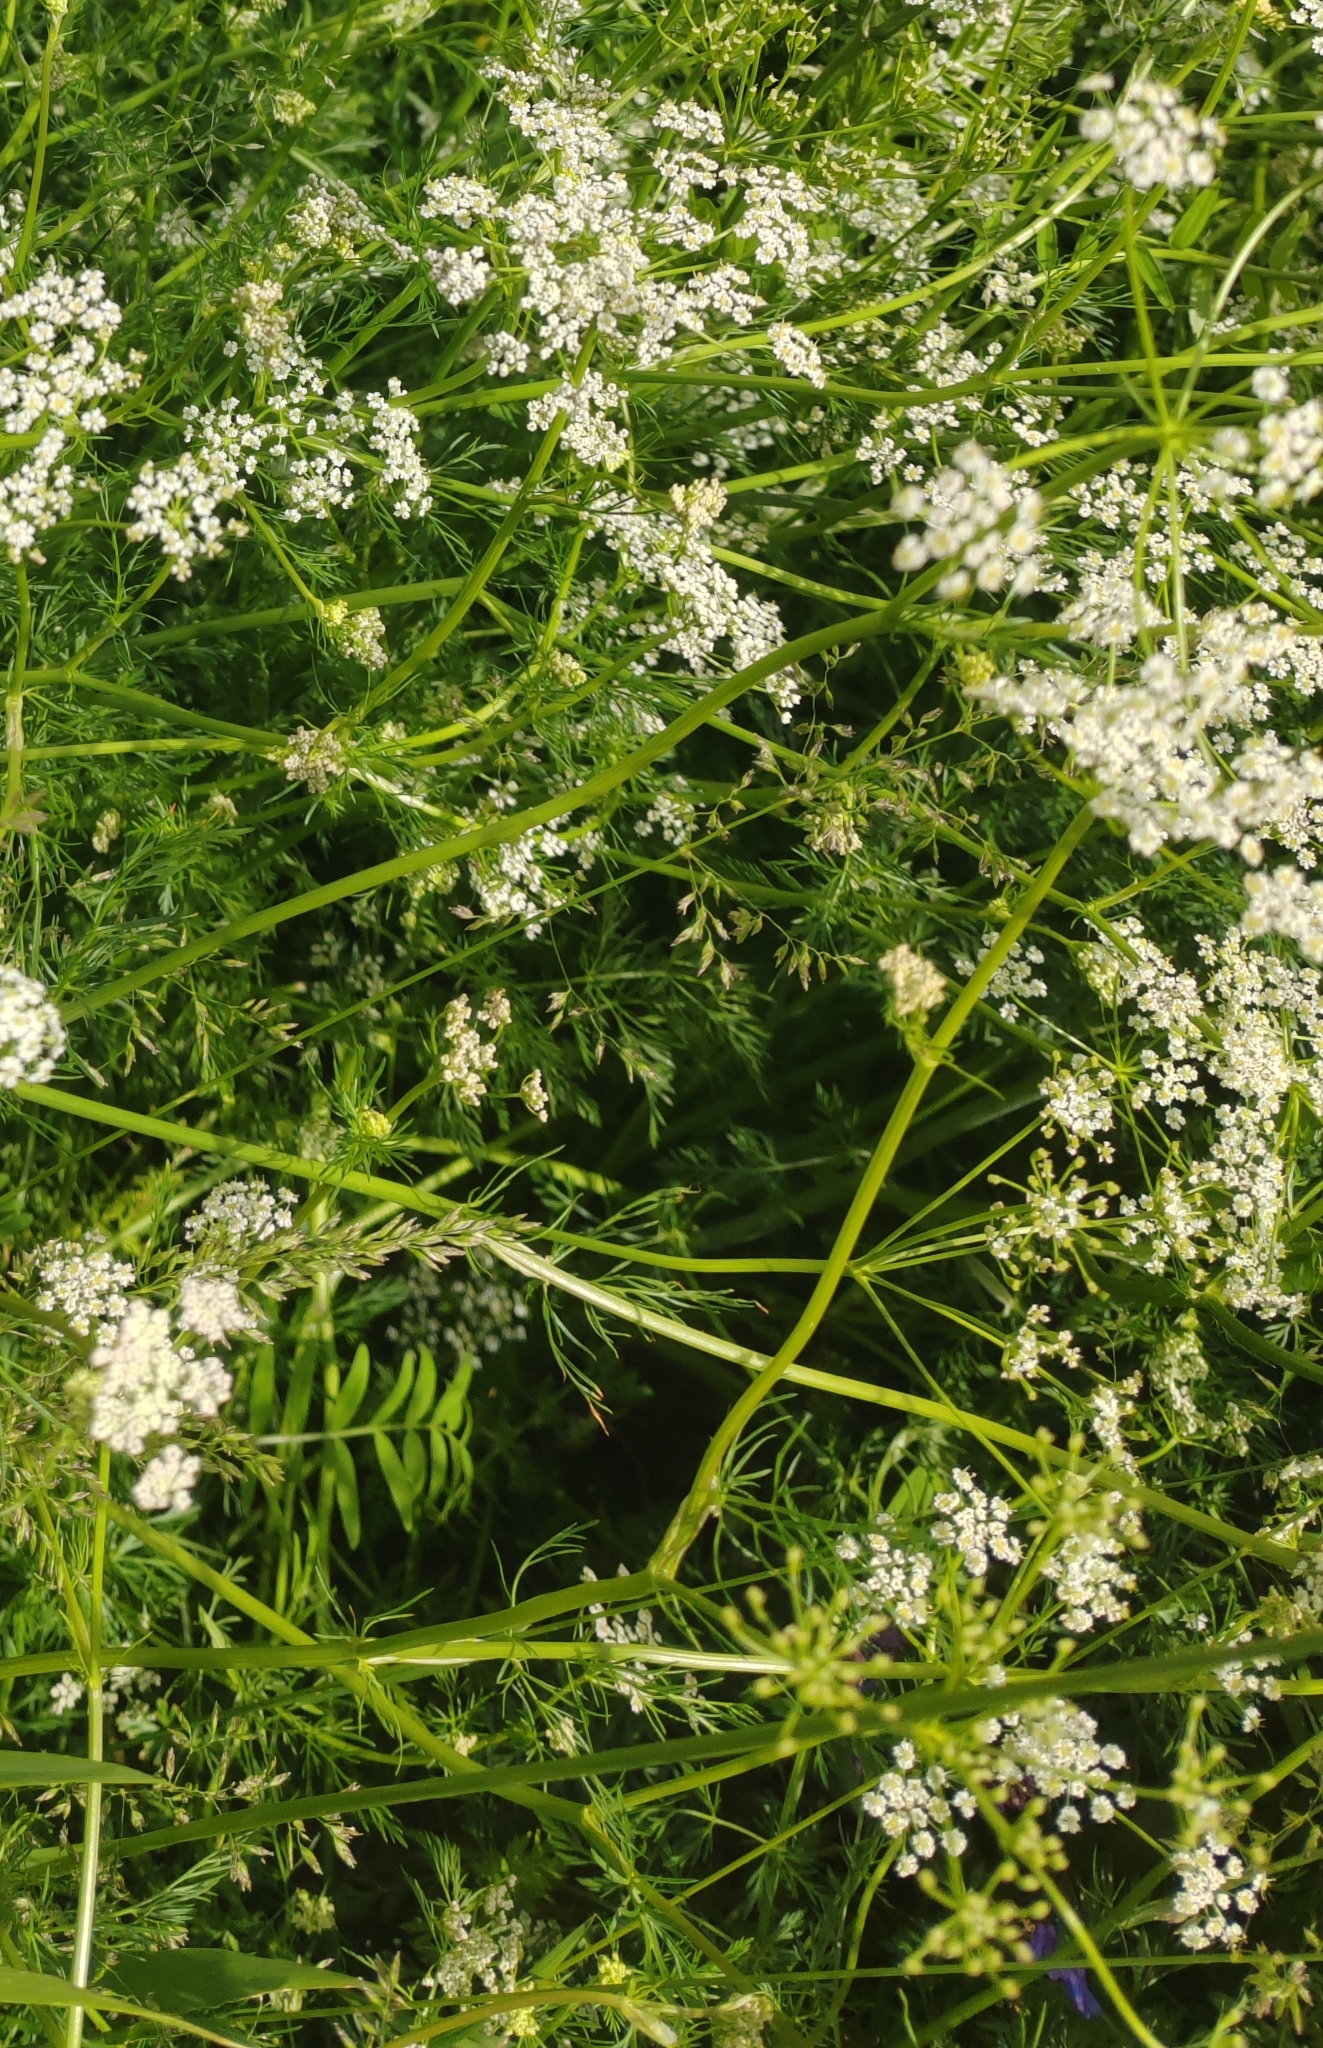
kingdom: Plantae
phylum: Tracheophyta
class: Magnoliopsida
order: Apiales
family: Apiaceae
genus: Carum
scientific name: Carum carvi
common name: Caraway
